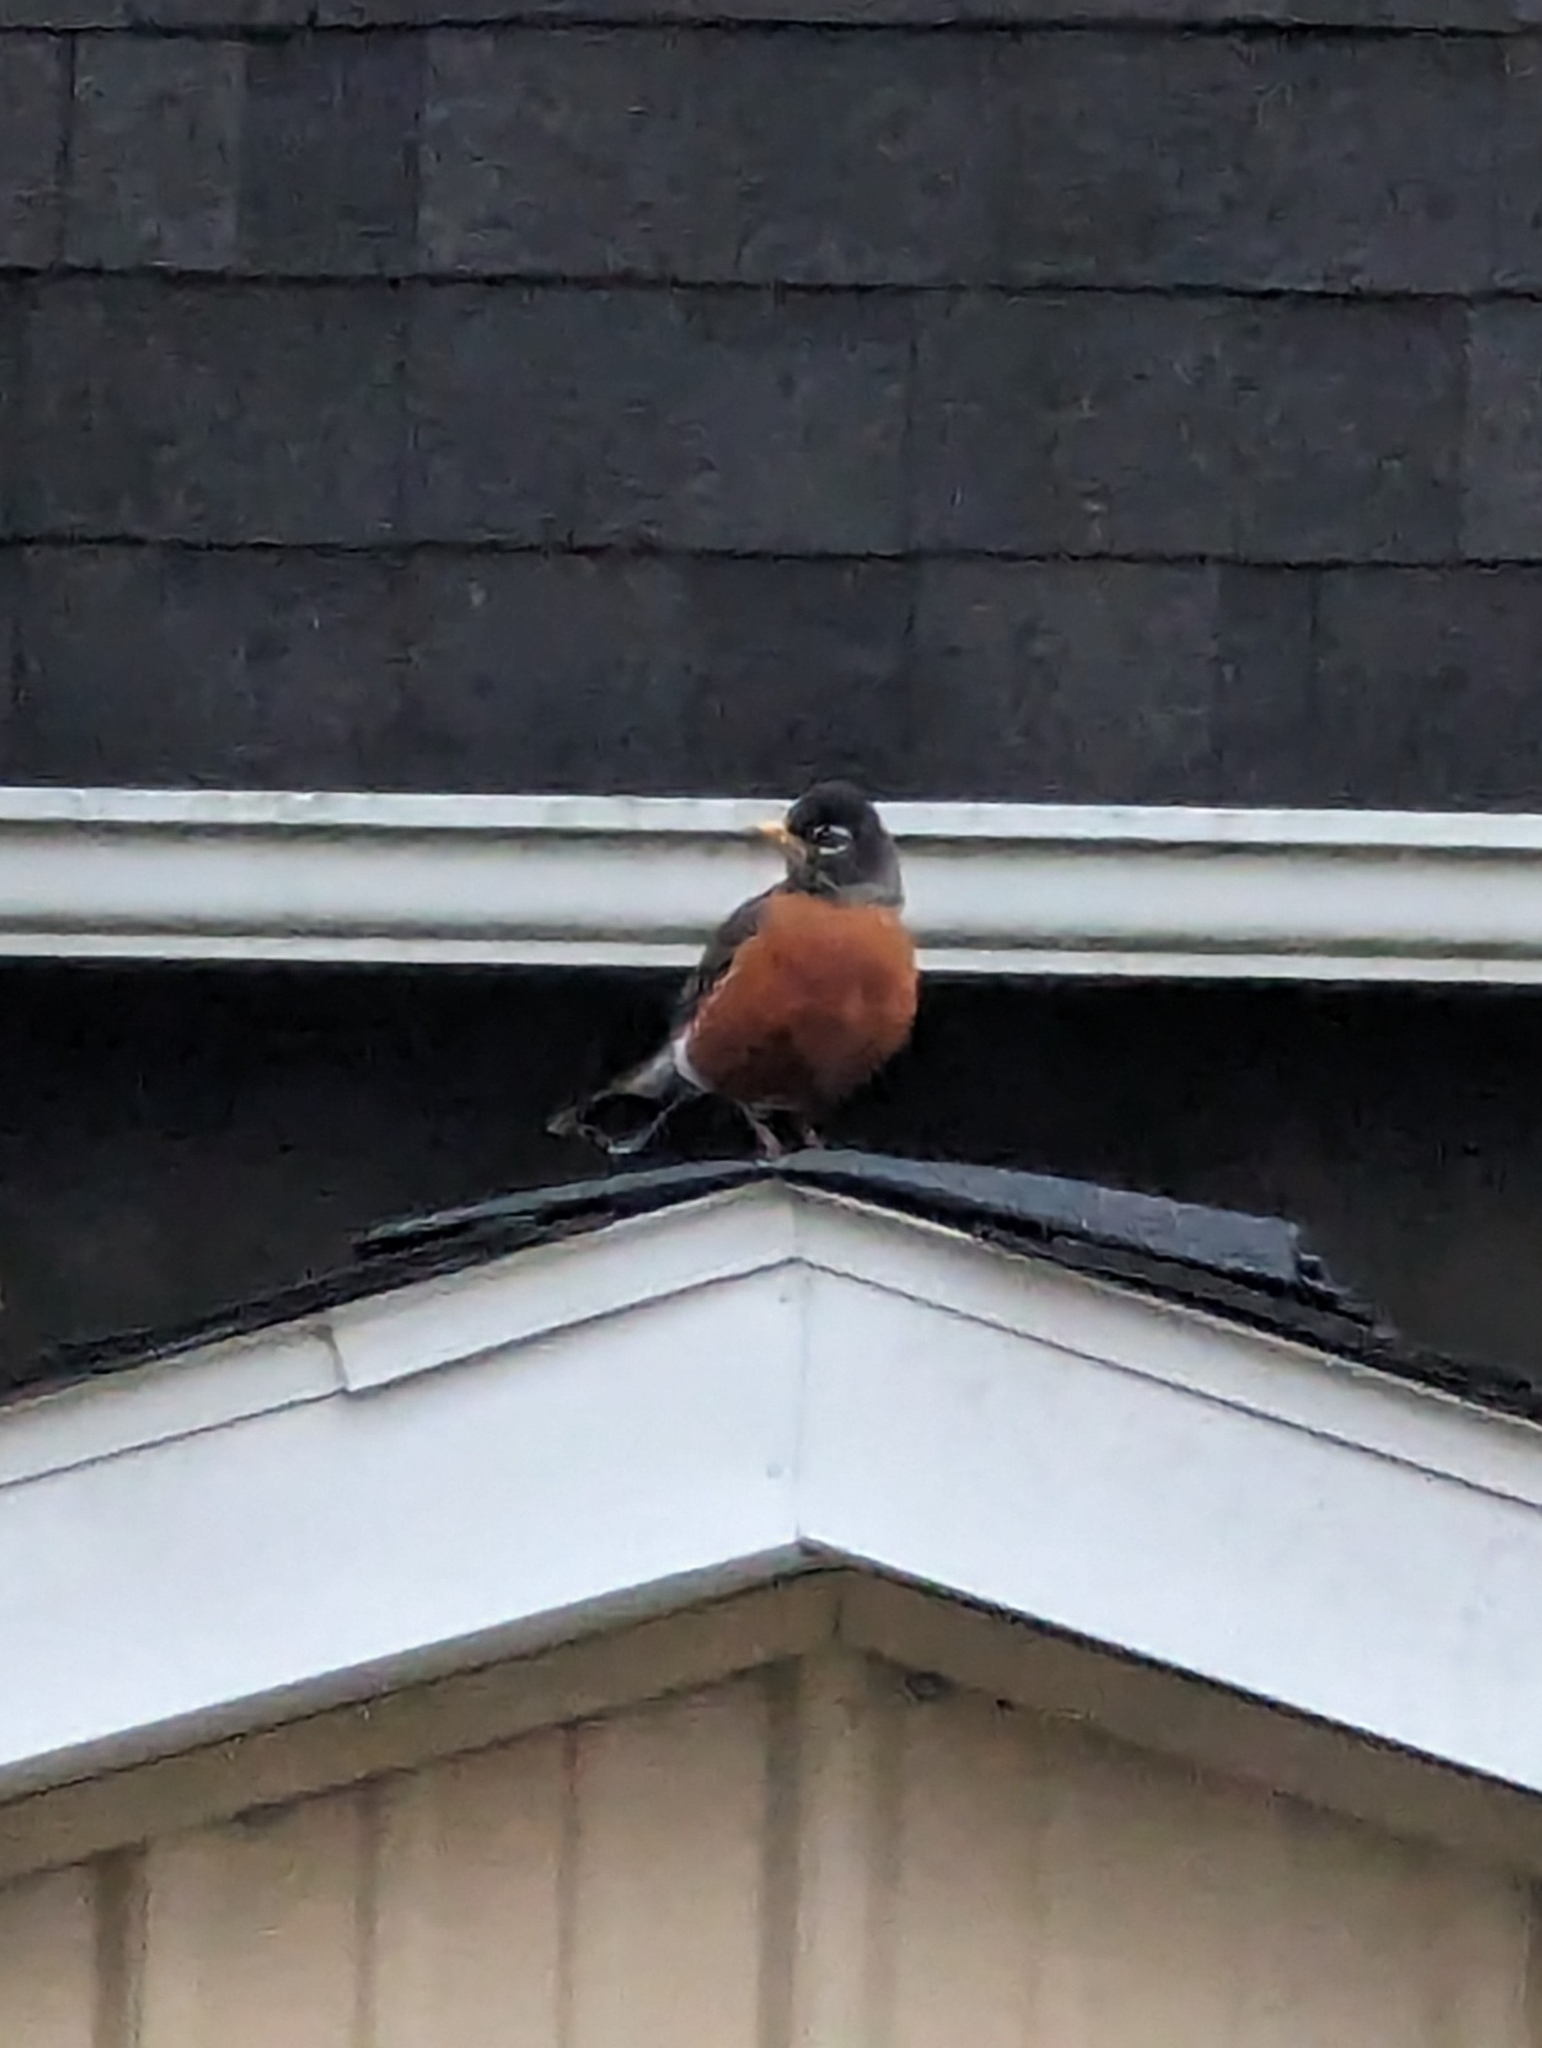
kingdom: Animalia
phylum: Chordata
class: Aves
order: Passeriformes
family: Turdidae
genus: Turdus
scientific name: Turdus migratorius
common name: American robin
